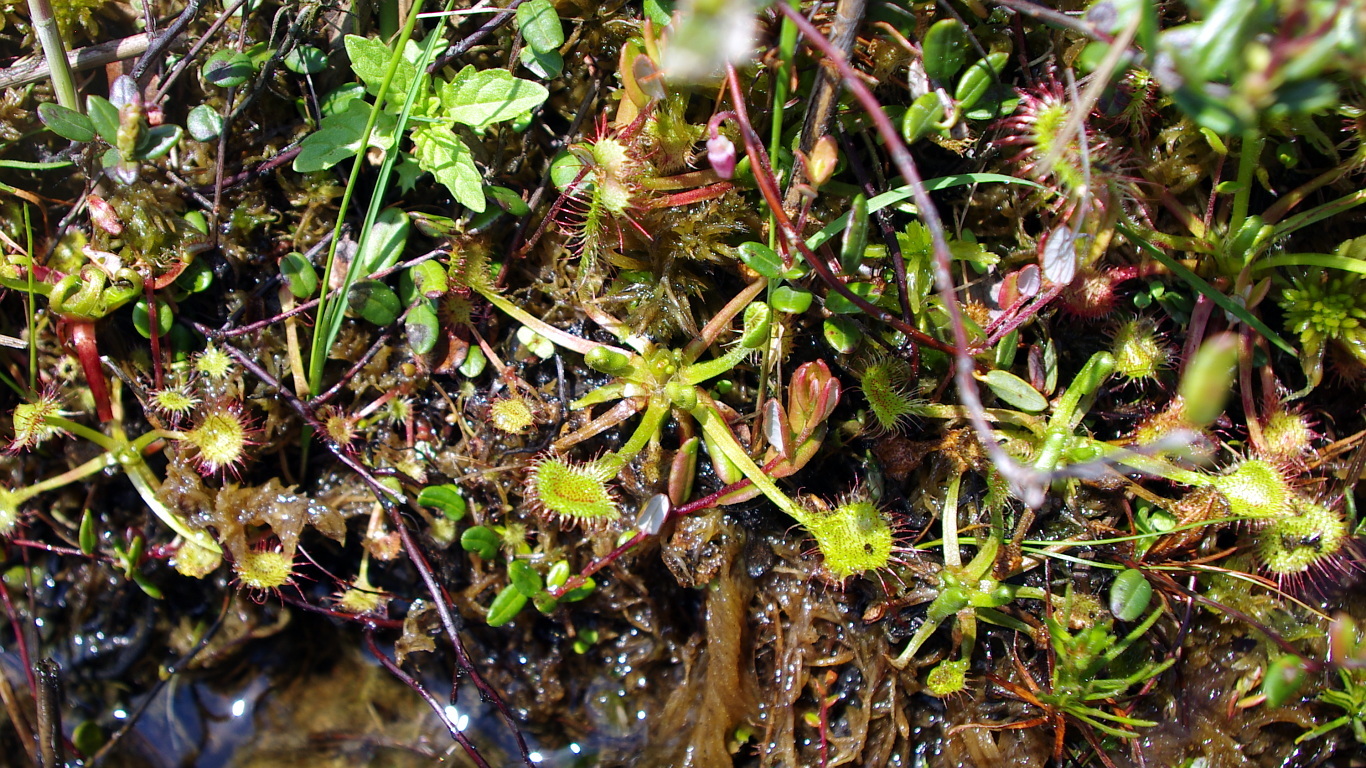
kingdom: Plantae
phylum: Tracheophyta
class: Magnoliopsida
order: Caryophyllales
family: Droseraceae
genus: Drosera
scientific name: Drosera rotundifolia
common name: Round-leaved sundew
